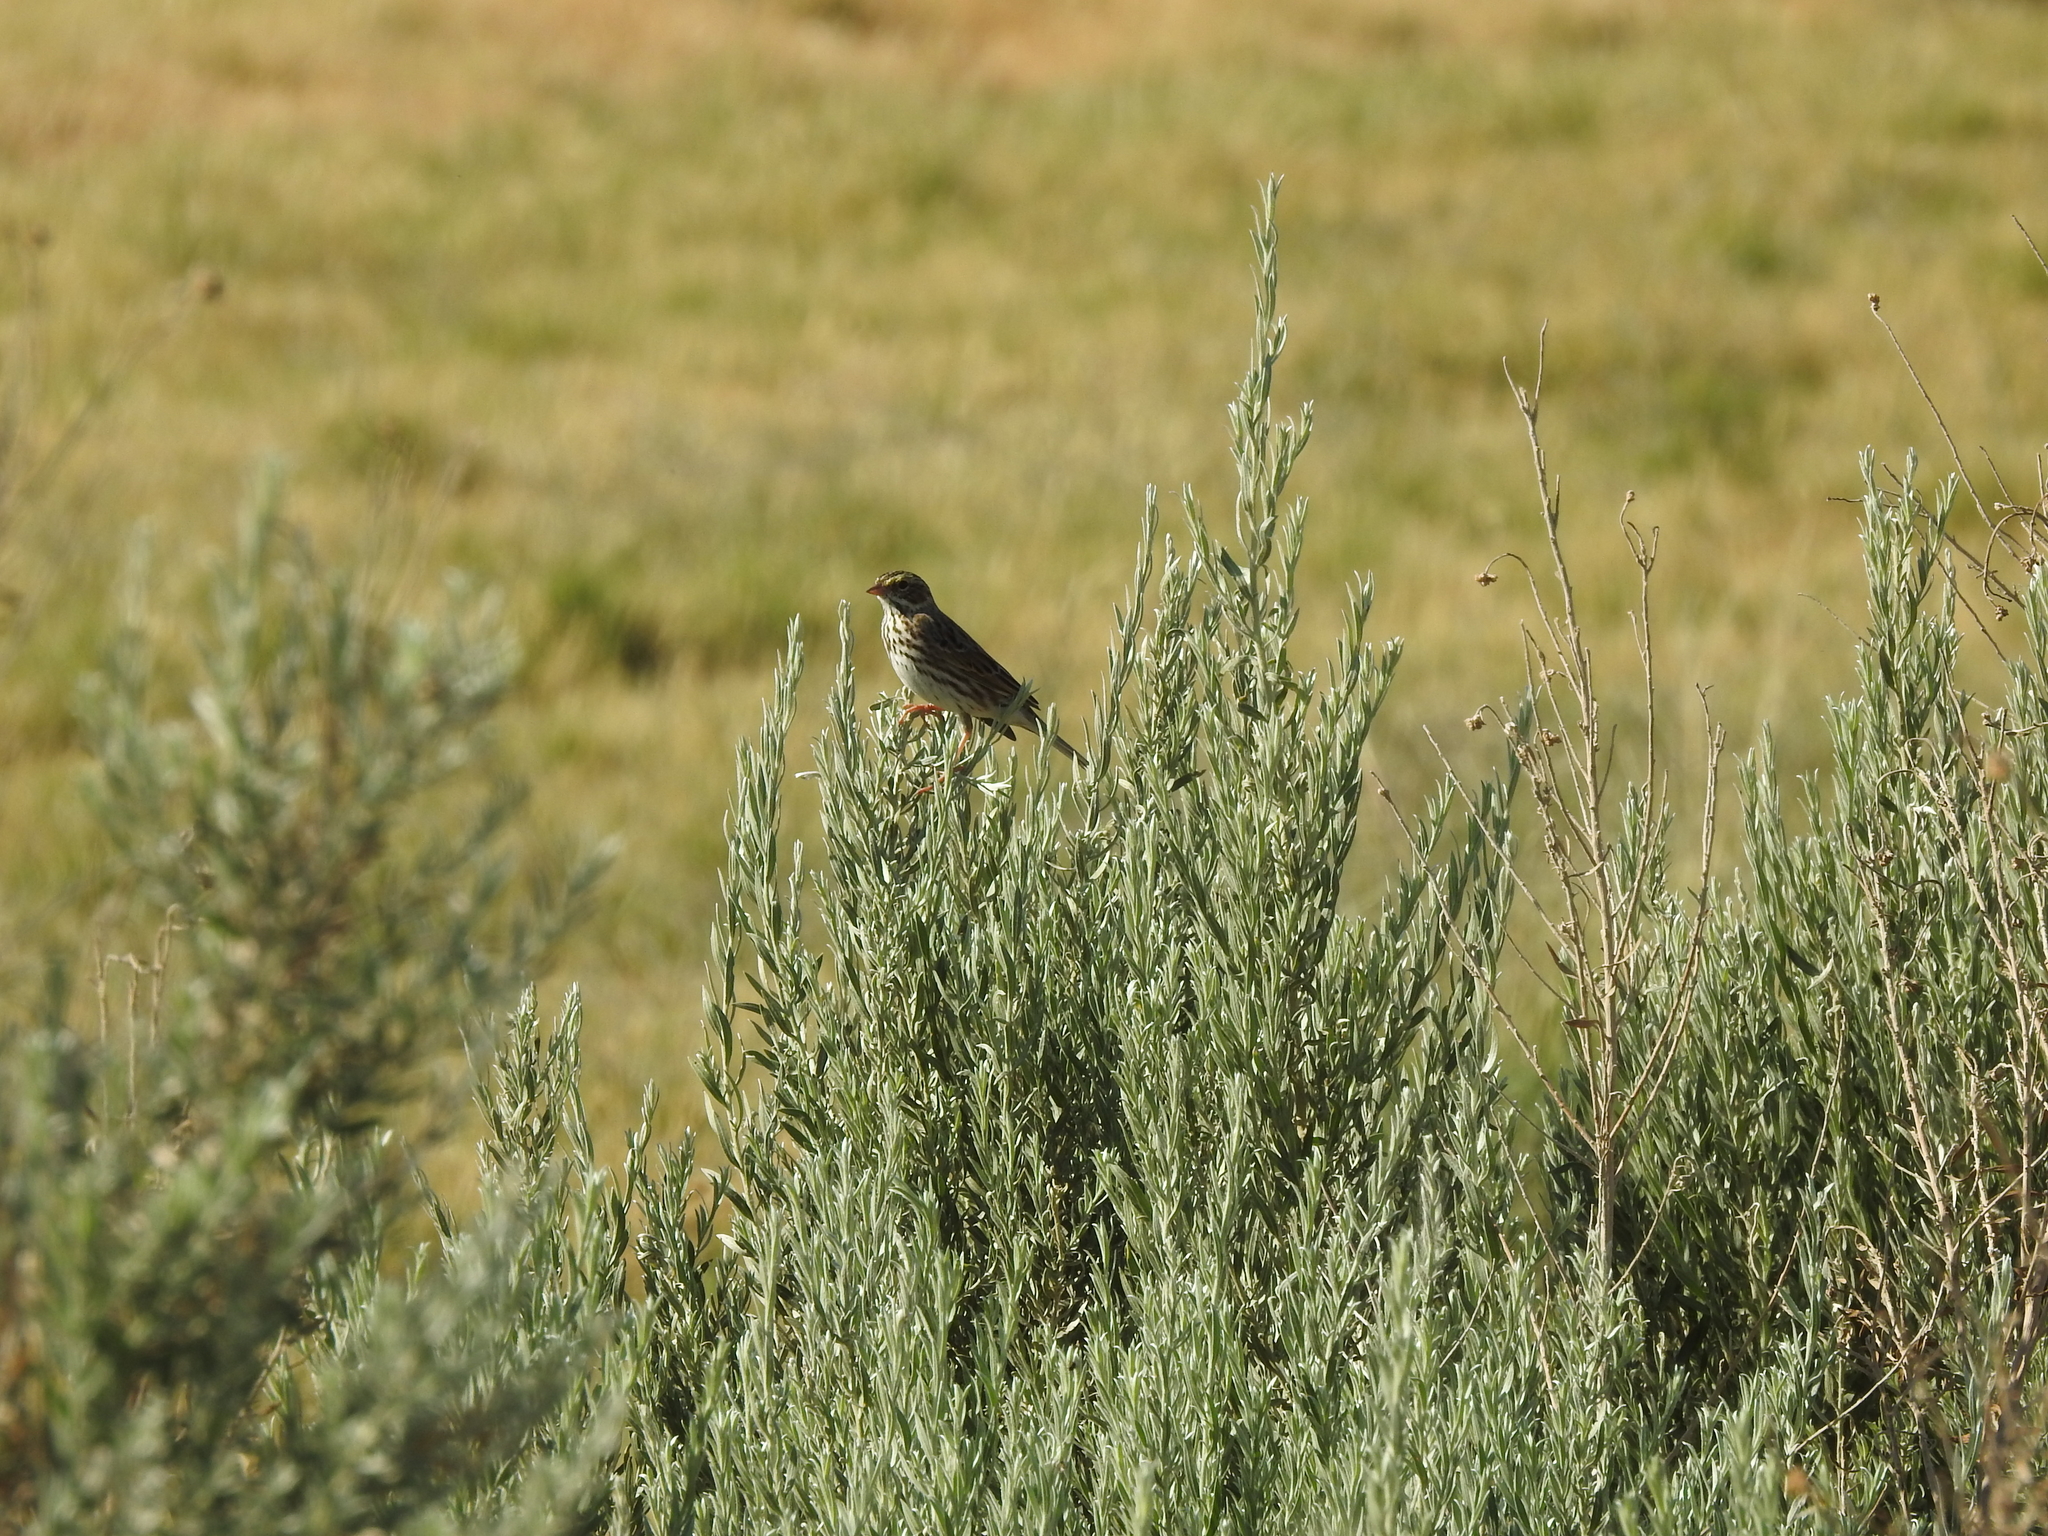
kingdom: Animalia
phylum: Chordata
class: Aves
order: Passeriformes
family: Passerellidae
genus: Passerculus
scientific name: Passerculus sandwichensis
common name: Savannah sparrow
